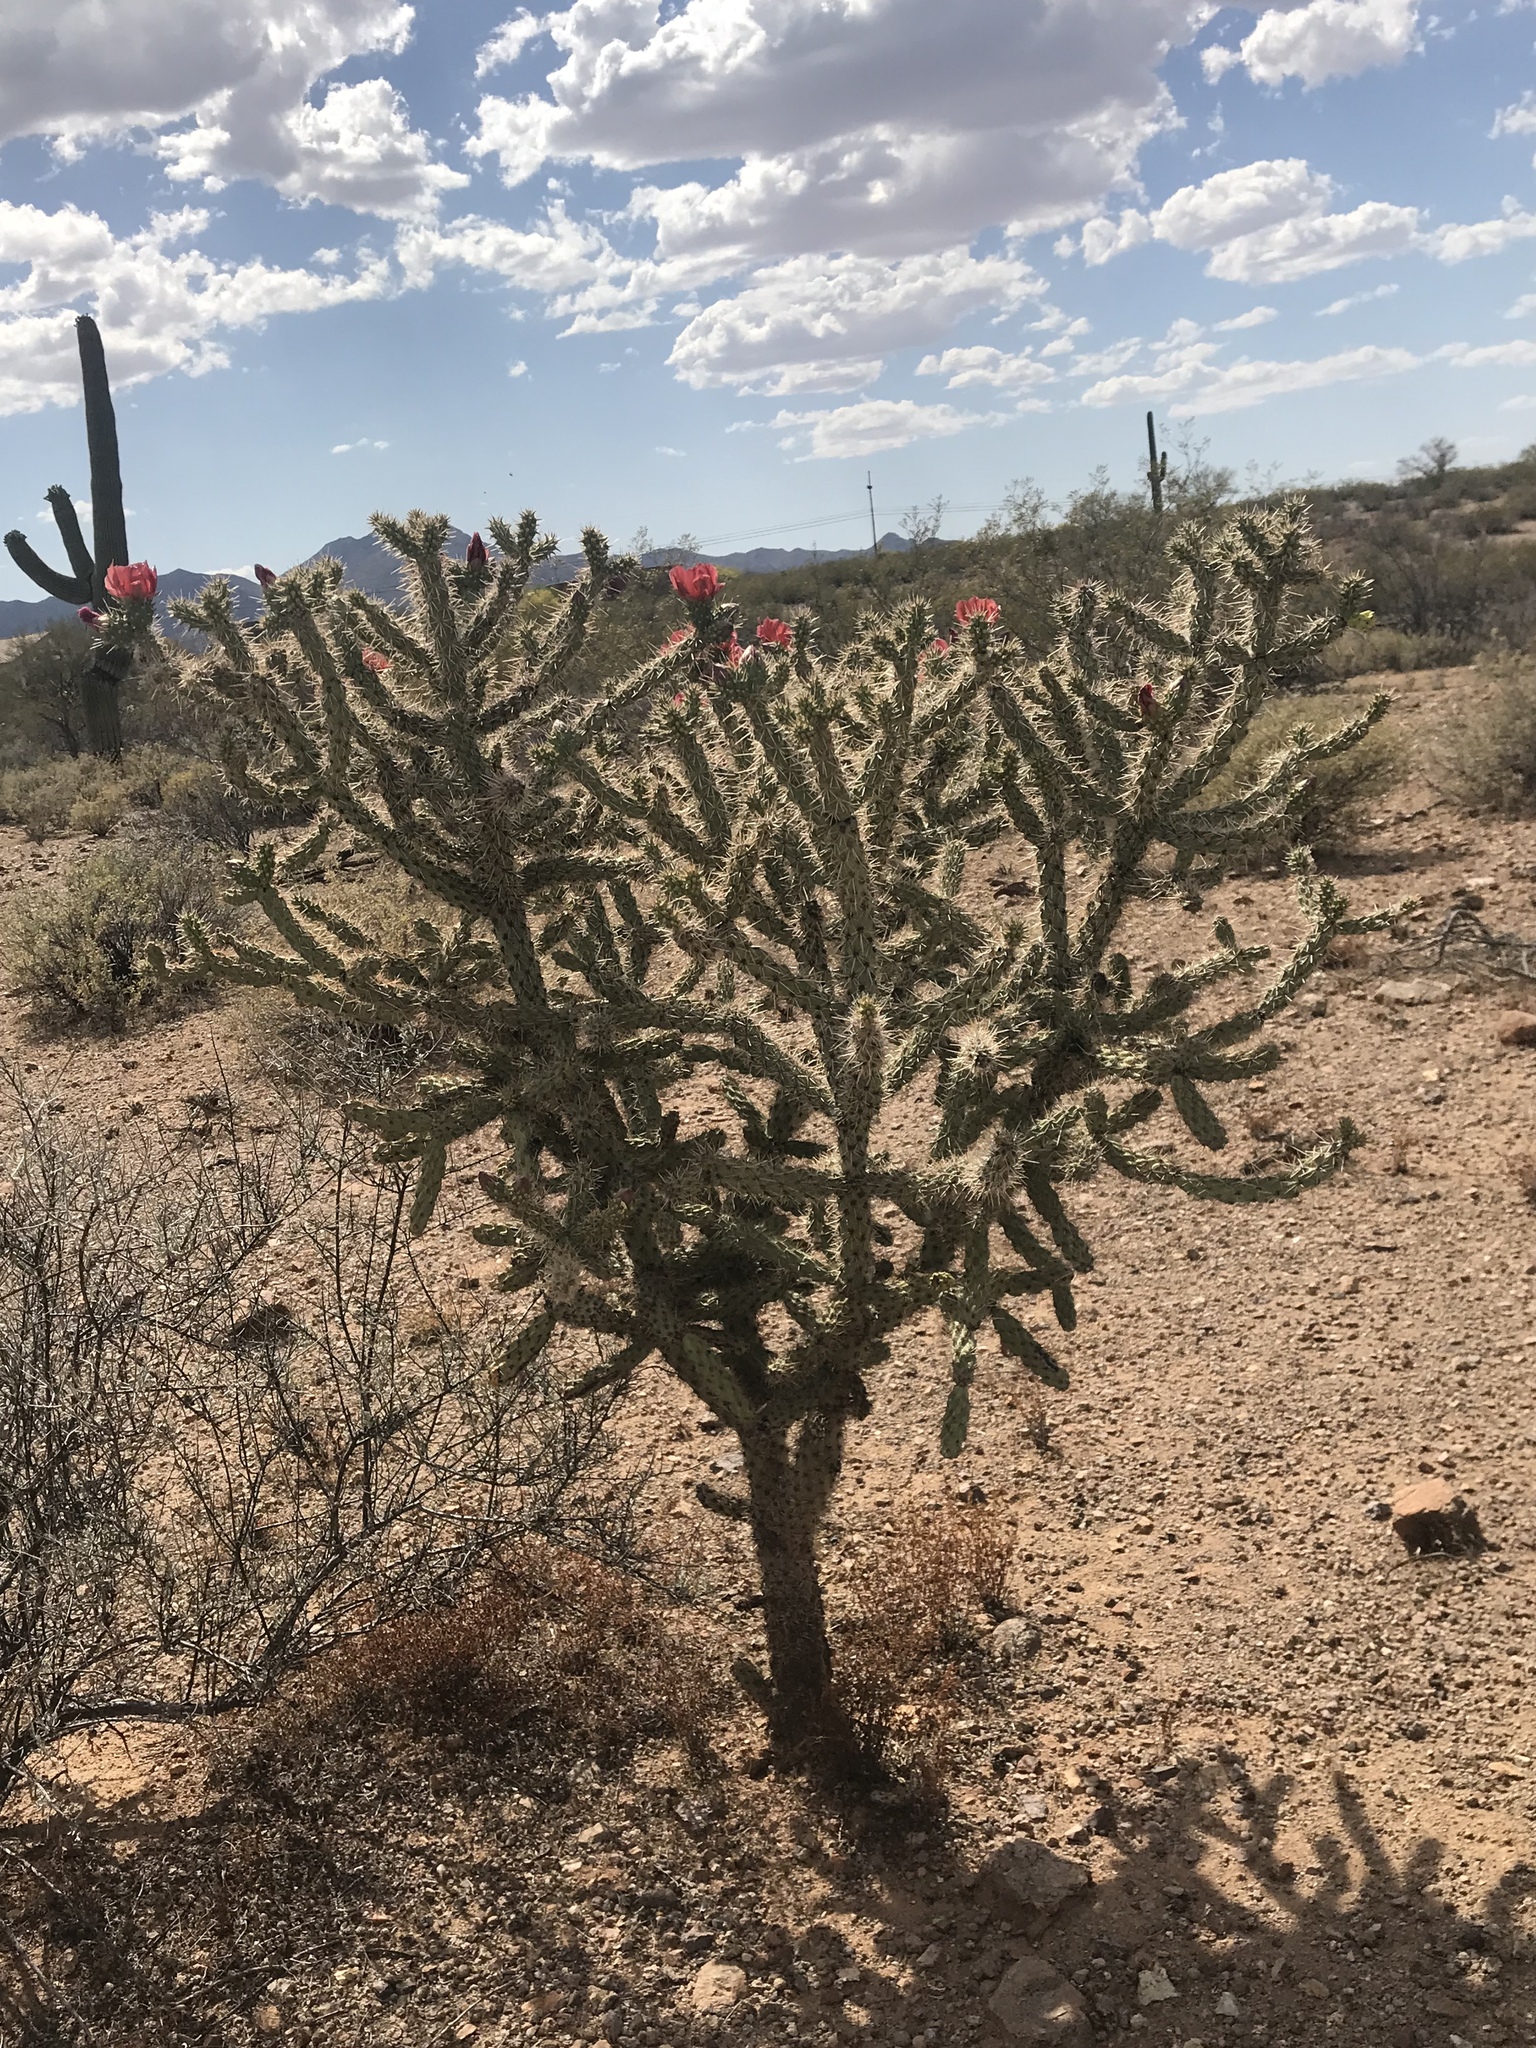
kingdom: Plantae
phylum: Tracheophyta
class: Magnoliopsida
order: Caryophyllales
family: Cactaceae
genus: Cylindropuntia
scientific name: Cylindropuntia thurberi
